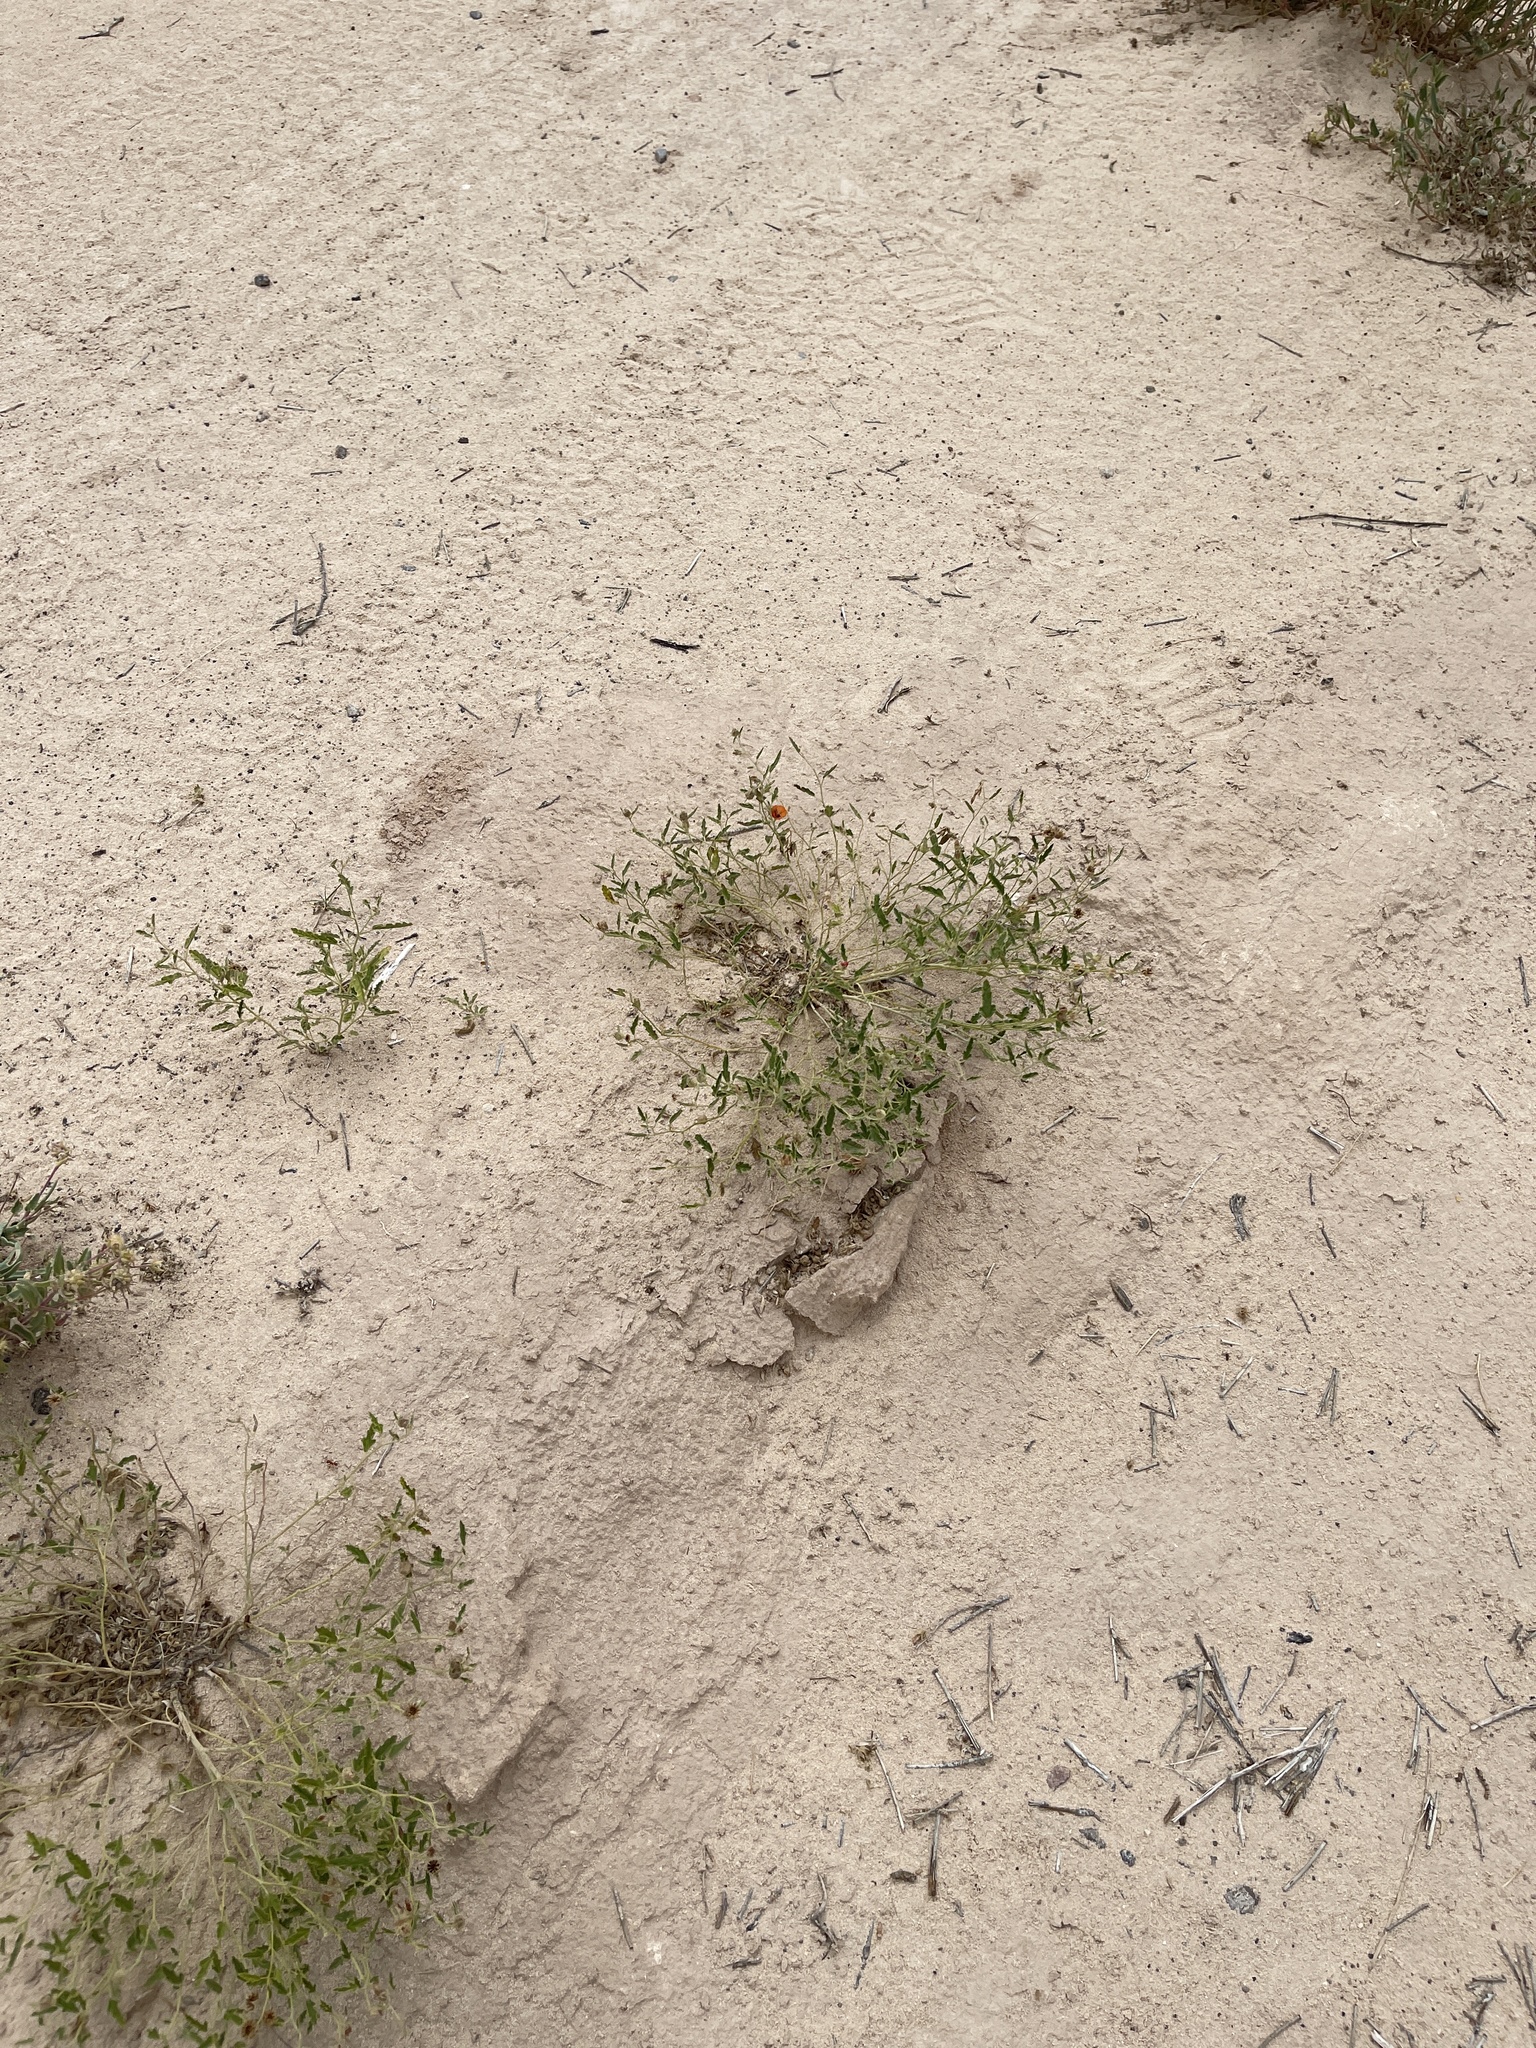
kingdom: Plantae
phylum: Tracheophyta
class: Magnoliopsida
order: Malvales
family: Malvaceae
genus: Sphaeralcea
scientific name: Sphaeralcea hastulata
